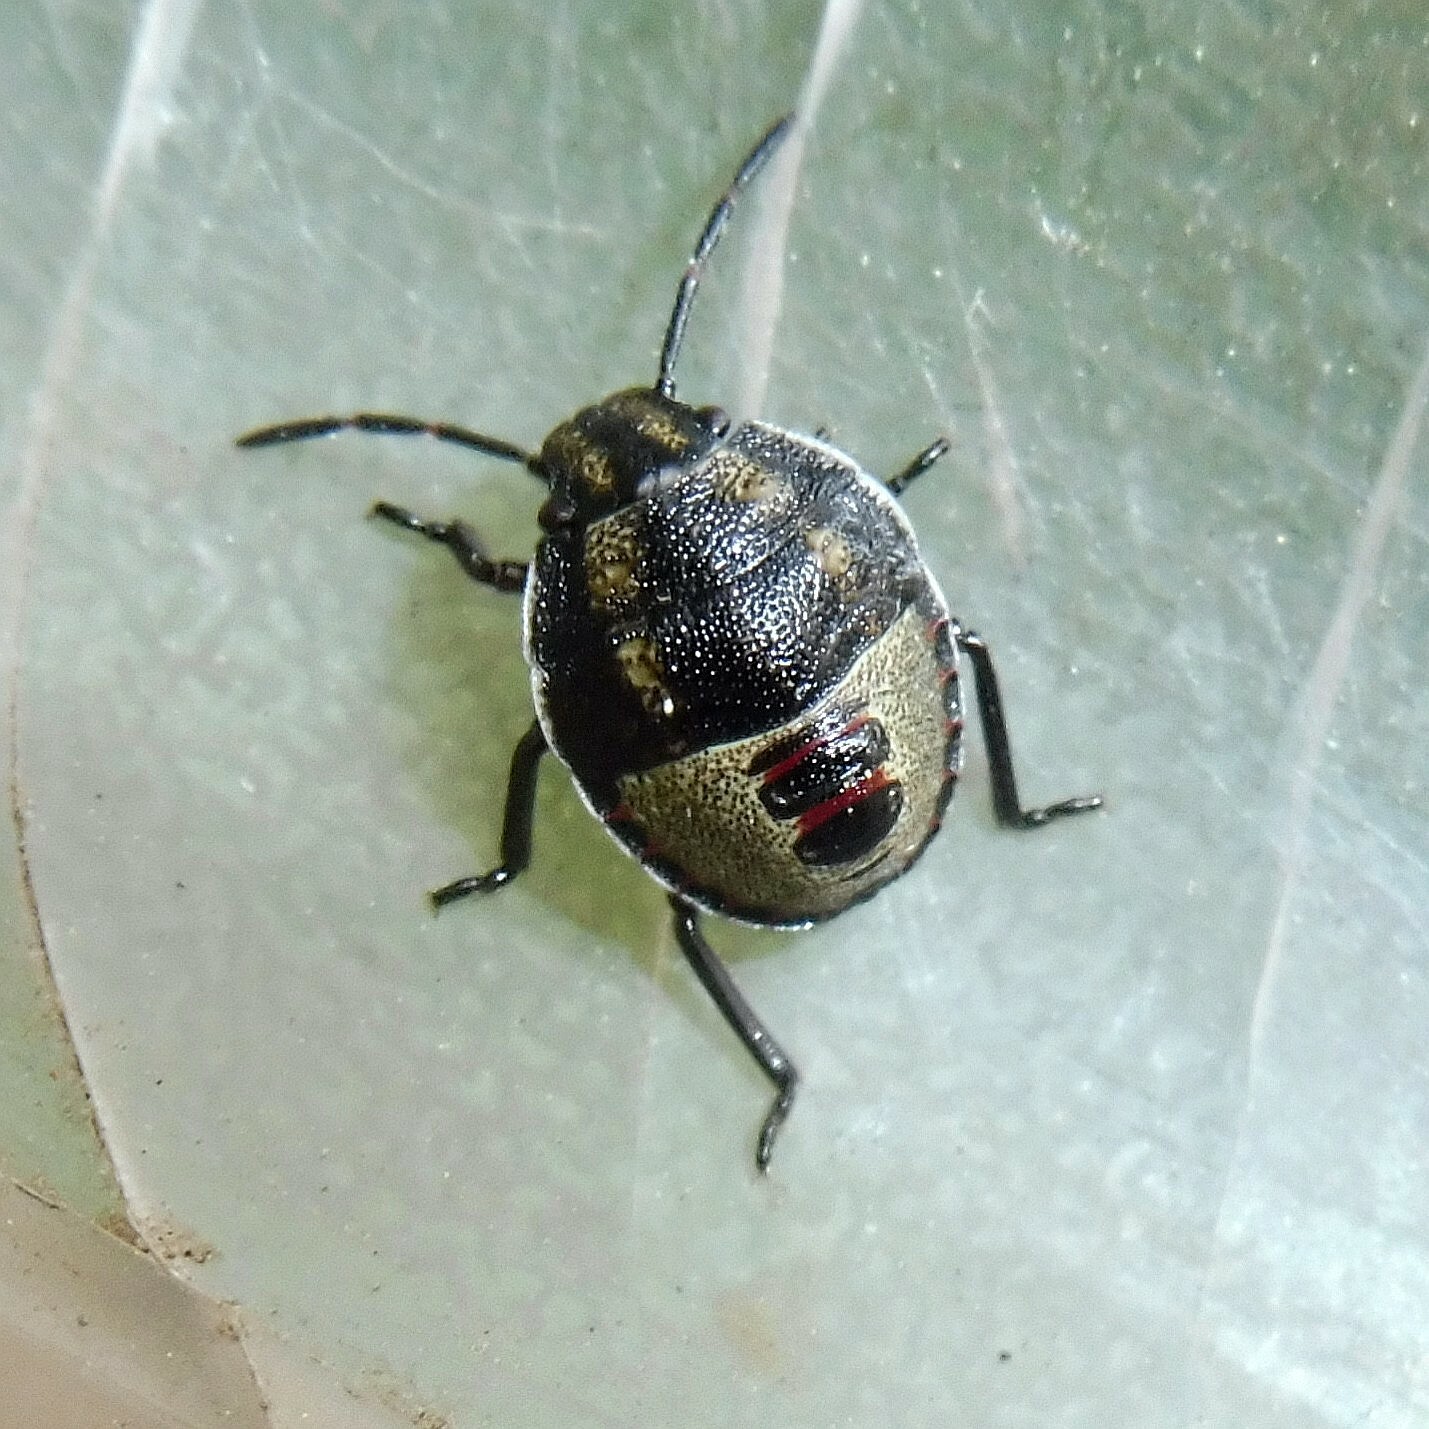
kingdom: Animalia
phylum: Arthropoda
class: Insecta
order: Hemiptera
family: Pentatomidae
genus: Piezodorus
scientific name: Piezodorus lituratus
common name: Stink bug
